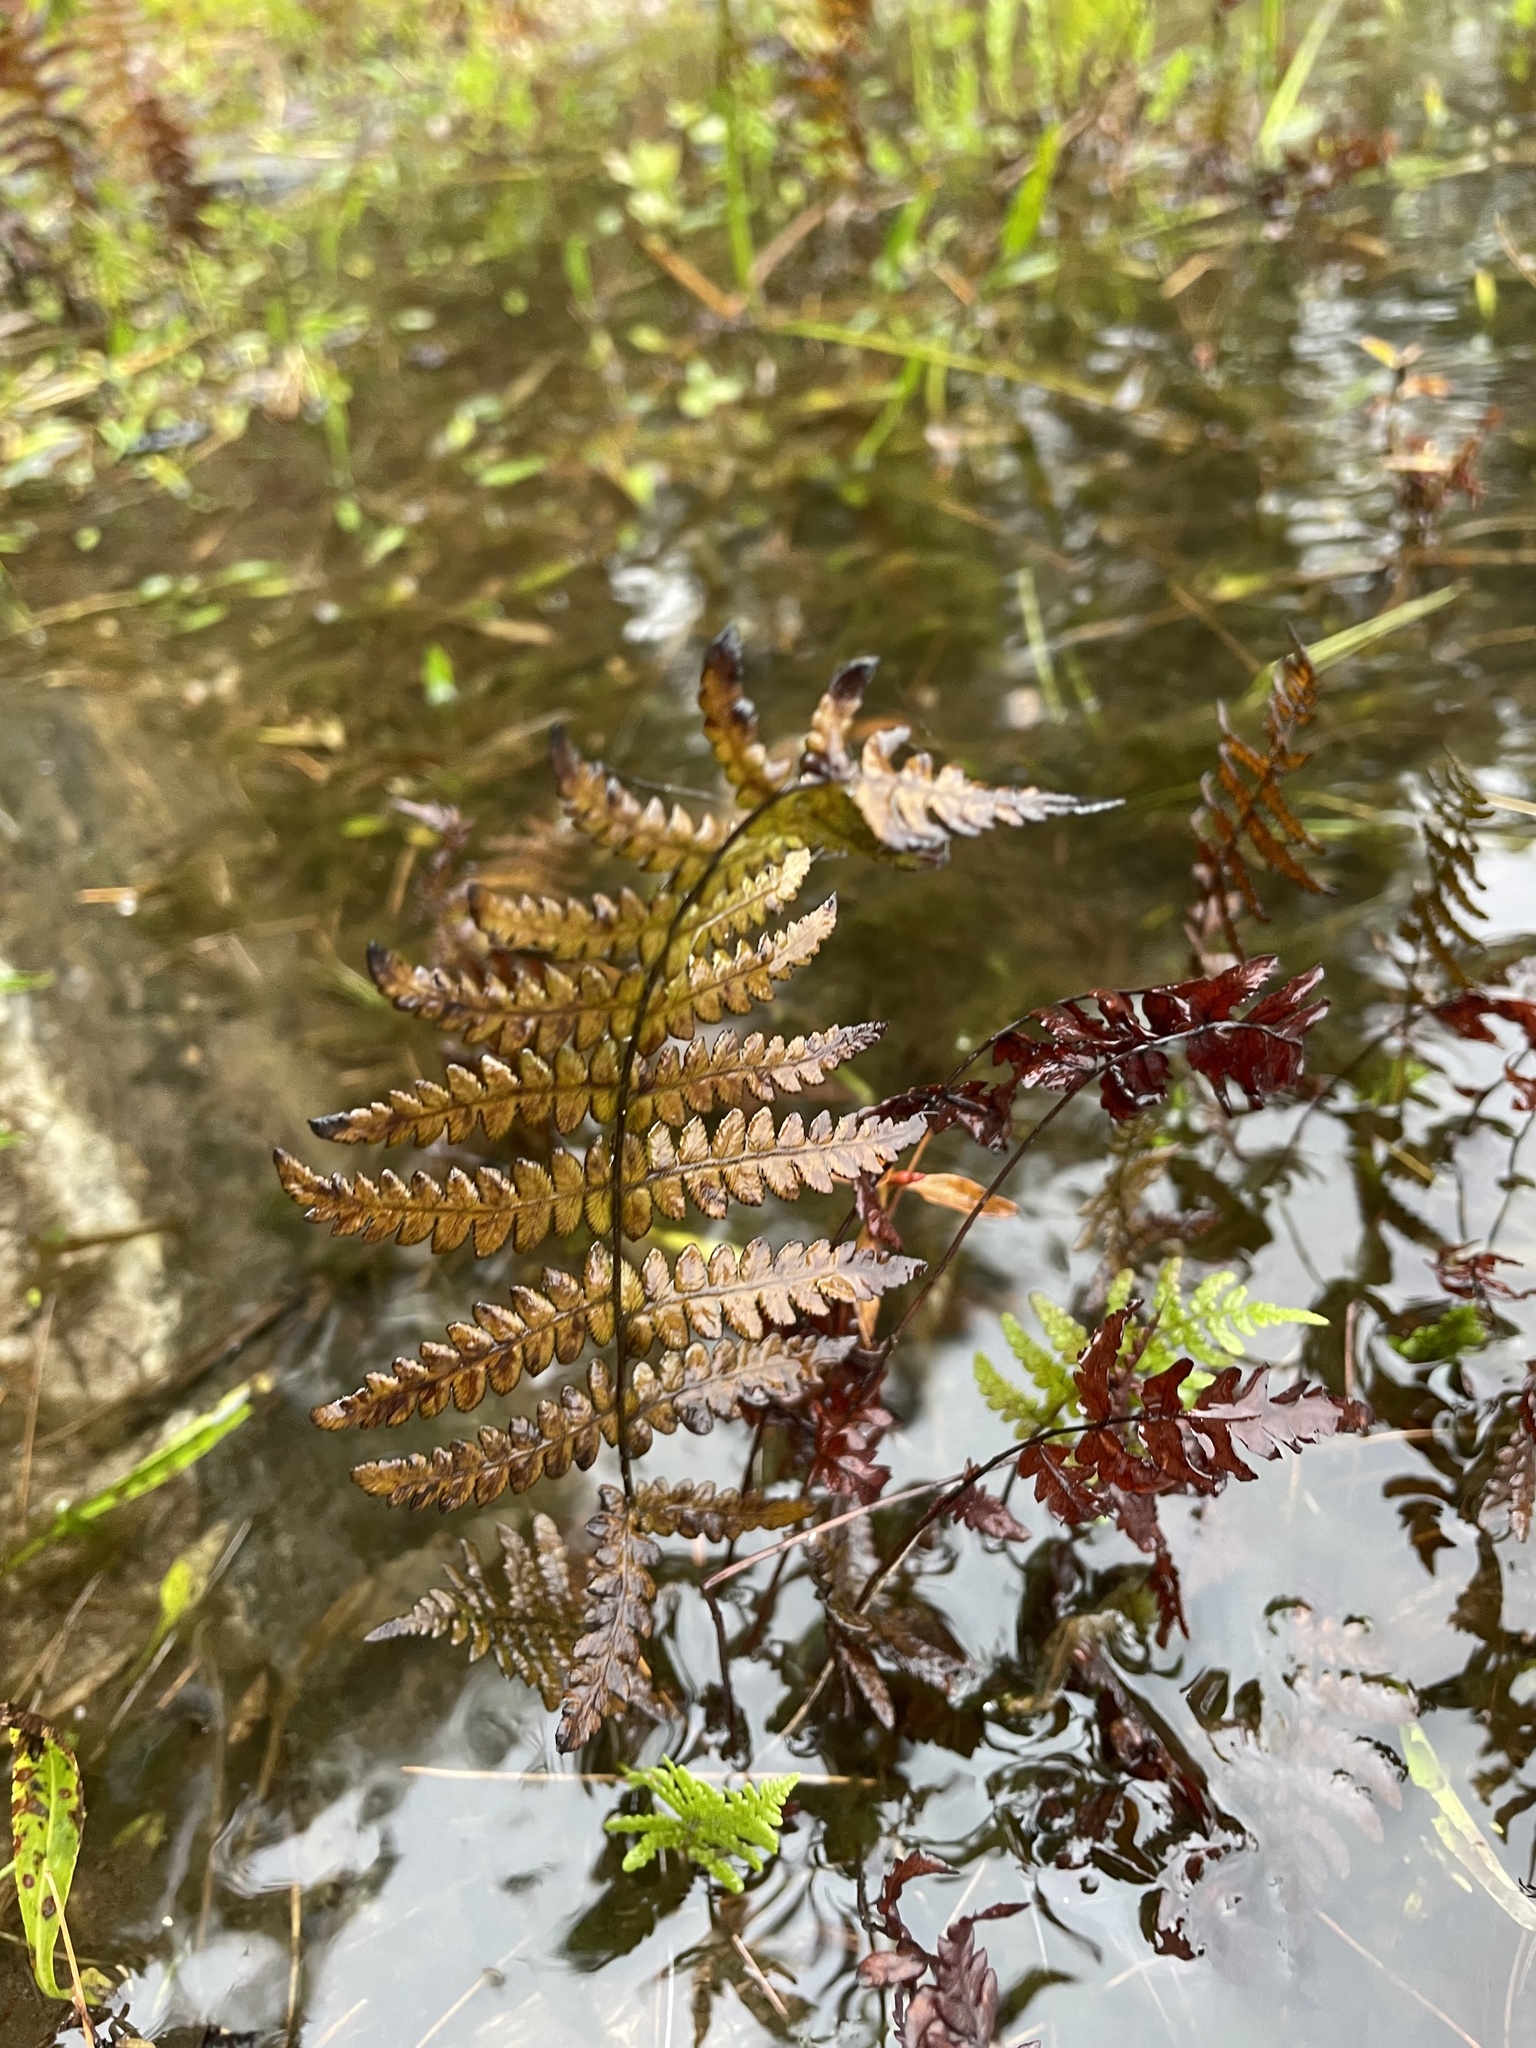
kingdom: Plantae
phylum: Tracheophyta
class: Polypodiopsida
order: Polypodiales
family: Thelypteridaceae
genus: Thelypteris
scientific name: Thelypteris palustris
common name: Marsh fern
